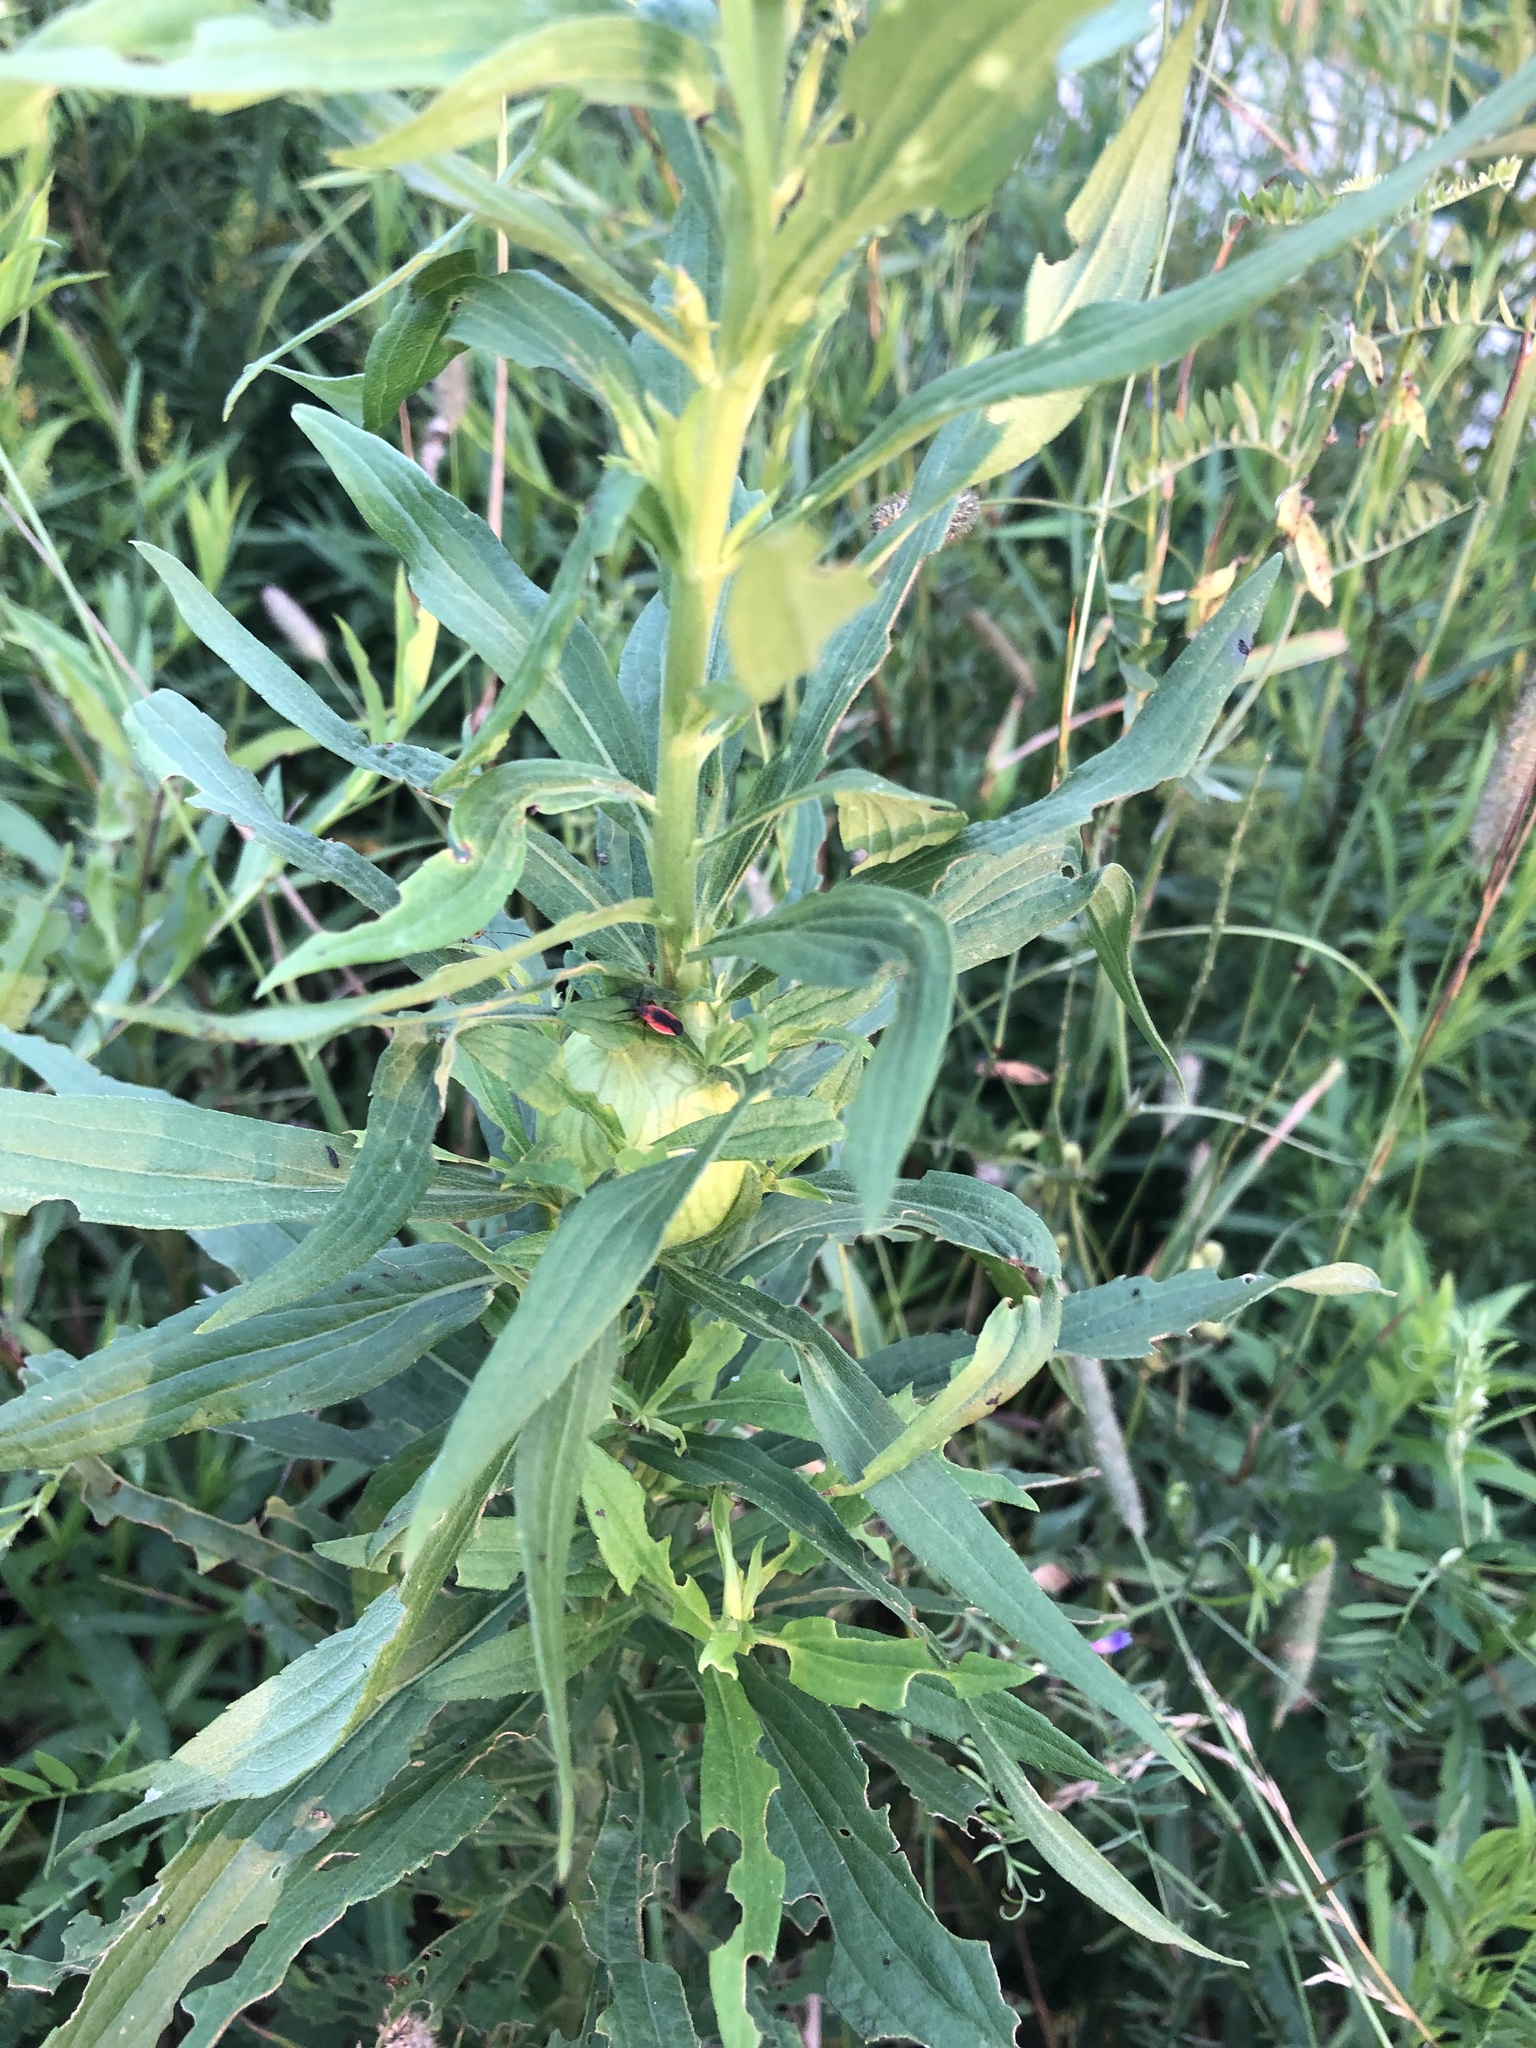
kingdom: Animalia
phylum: Arthropoda
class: Insecta
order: Diptera
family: Tephritidae
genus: Eurosta
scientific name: Eurosta solidaginis
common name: Goldenrod gall fly
